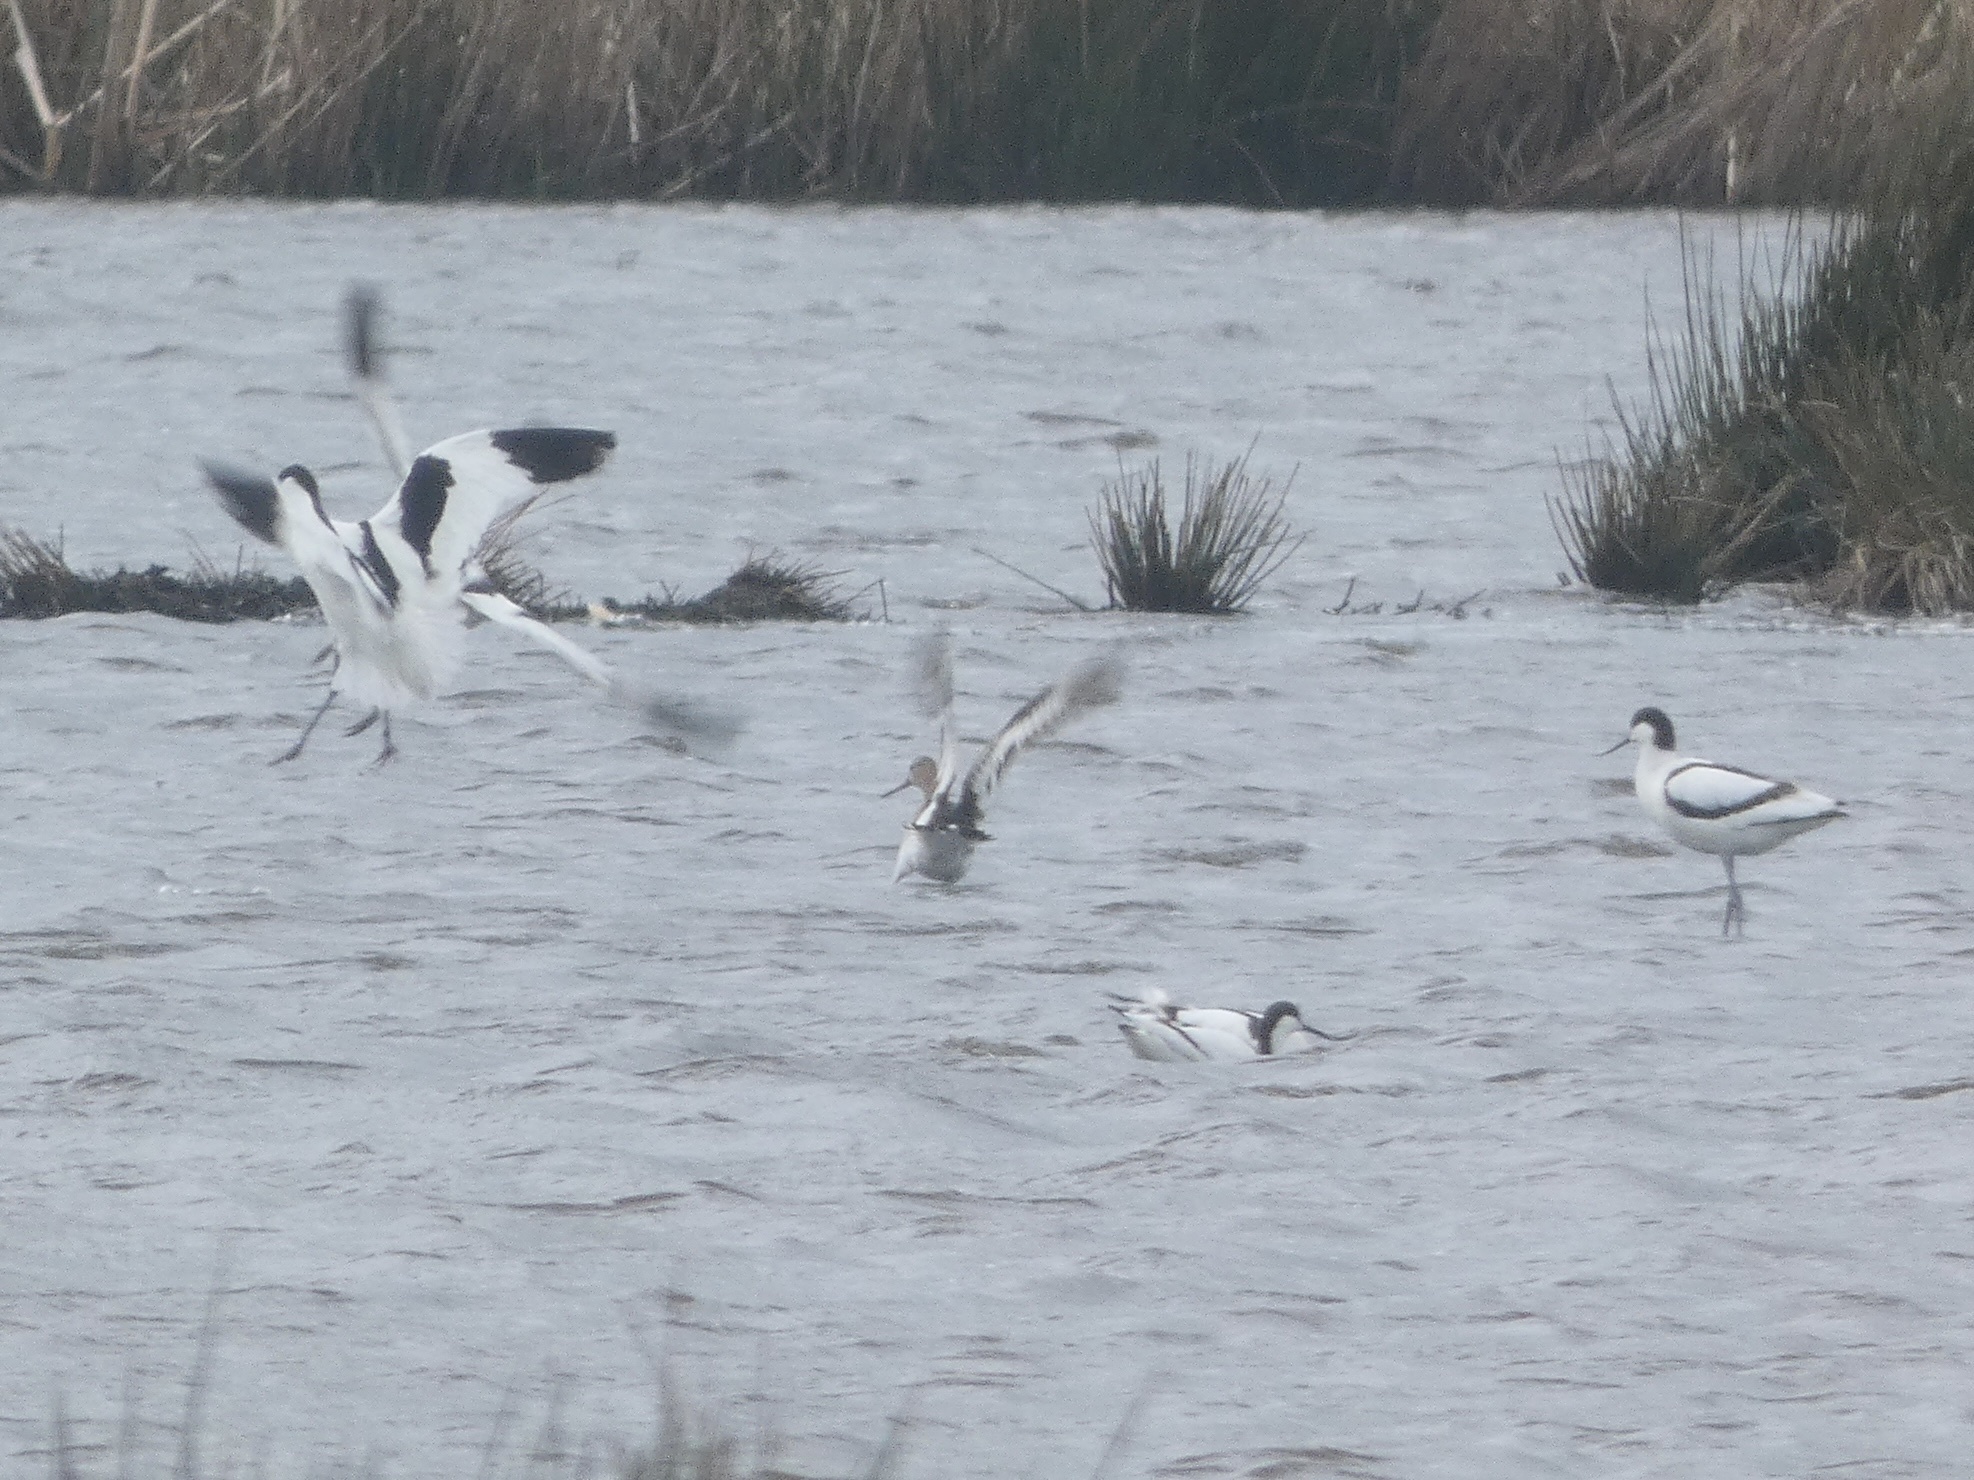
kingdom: Animalia
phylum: Chordata
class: Aves
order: Charadriiformes
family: Recurvirostridae
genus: Recurvirostra
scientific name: Recurvirostra avosetta
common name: Pied avocet
